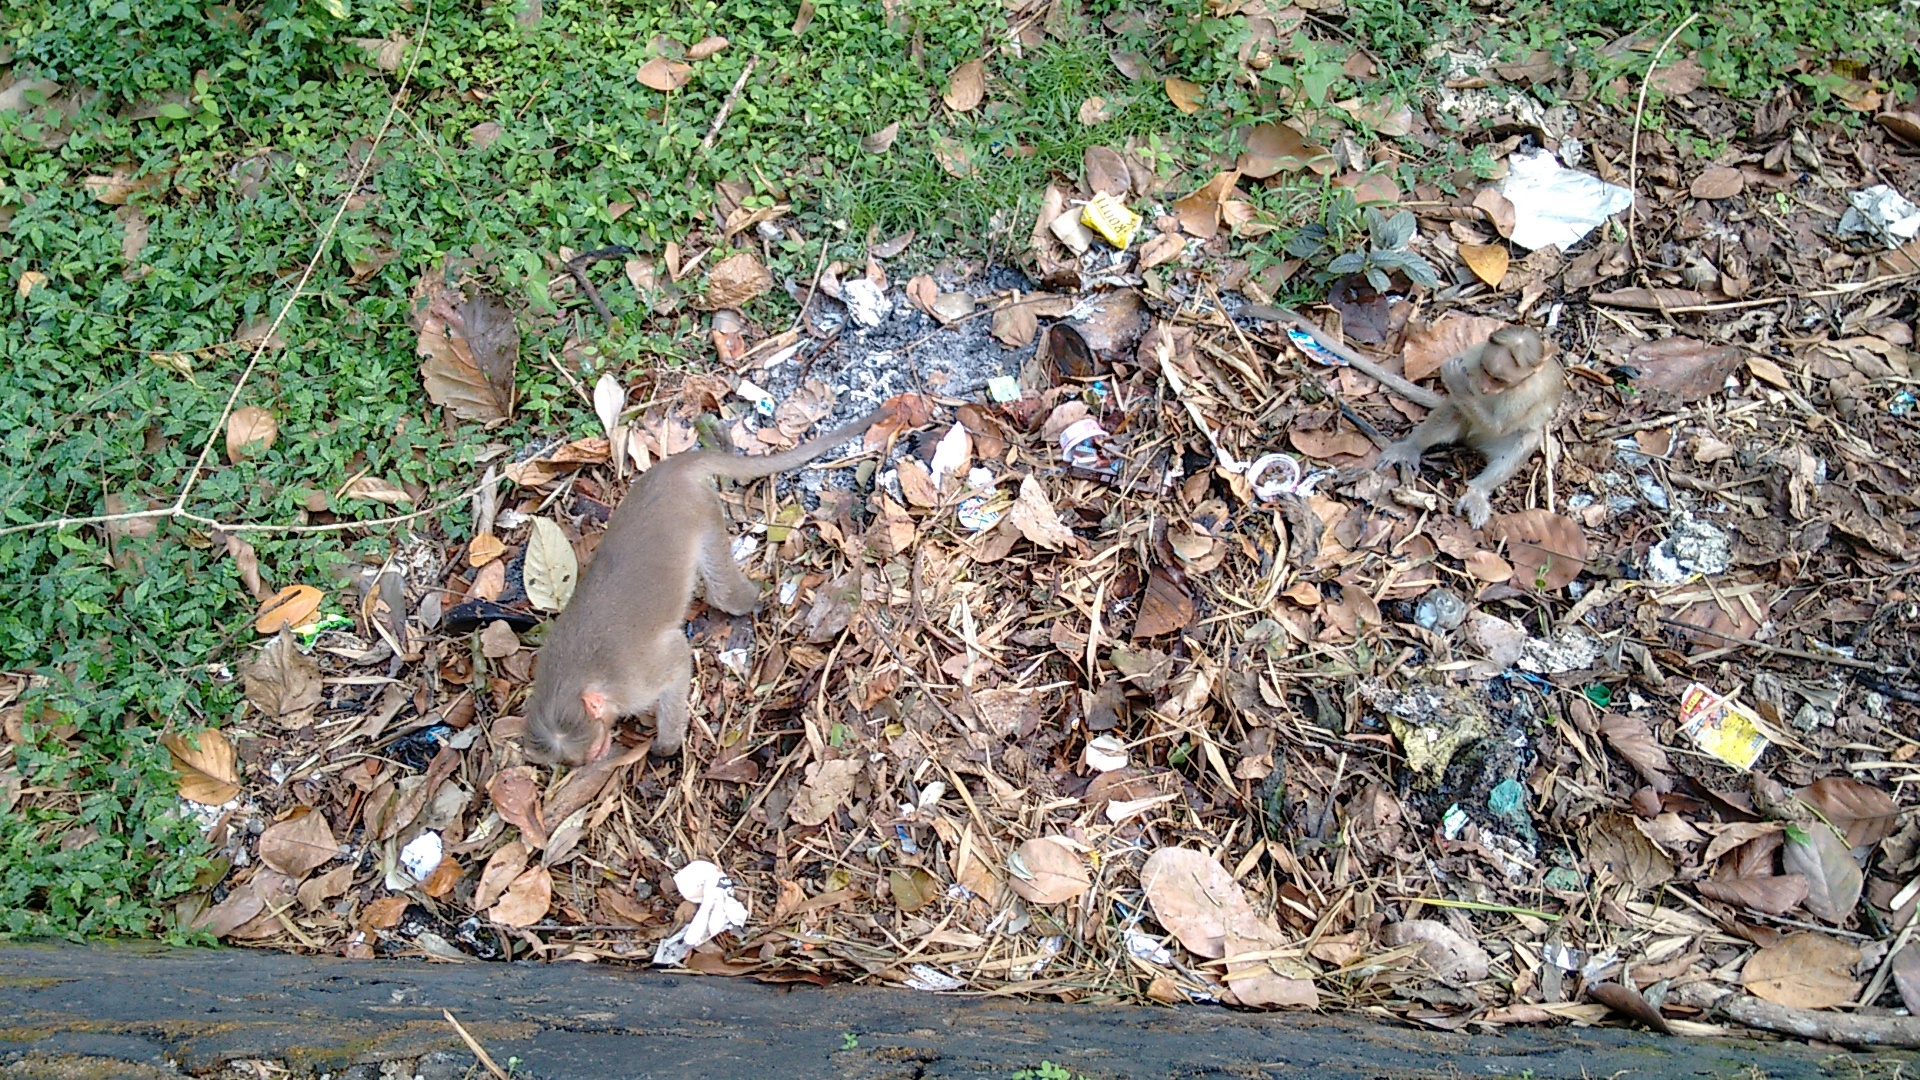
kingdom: Animalia
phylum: Chordata
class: Mammalia
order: Primates
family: Cercopithecidae
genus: Macaca
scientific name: Macaca radiata
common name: Bonnet macaque
